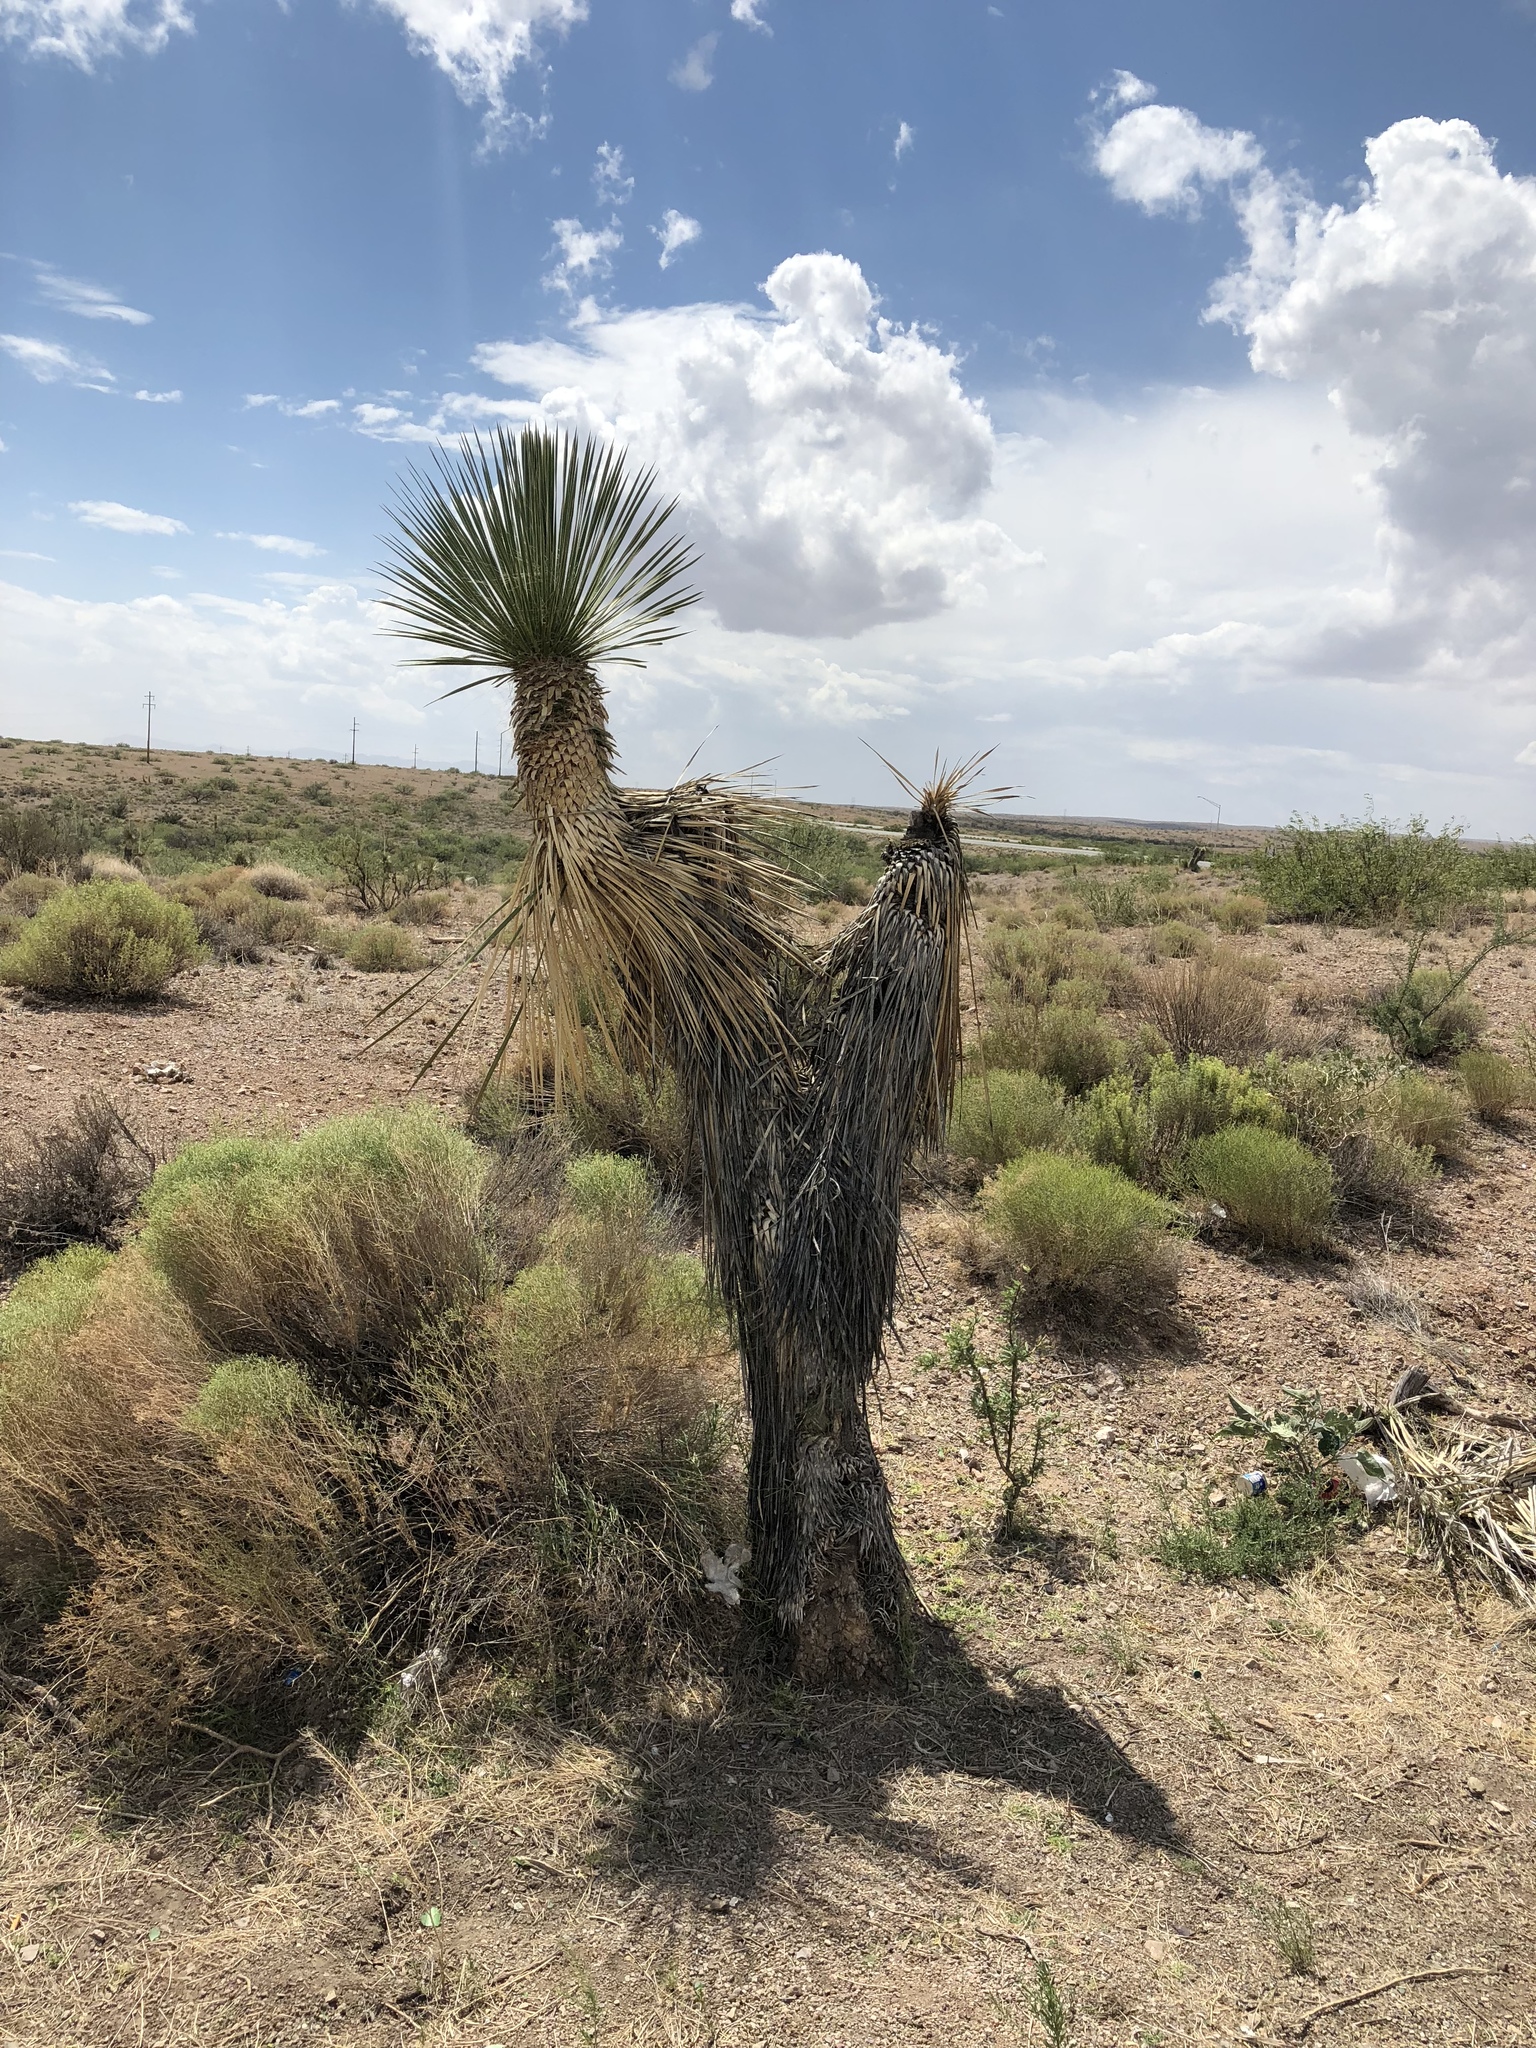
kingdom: Plantae
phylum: Tracheophyta
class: Liliopsida
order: Asparagales
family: Asparagaceae
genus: Yucca
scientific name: Yucca elata
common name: Palmella
